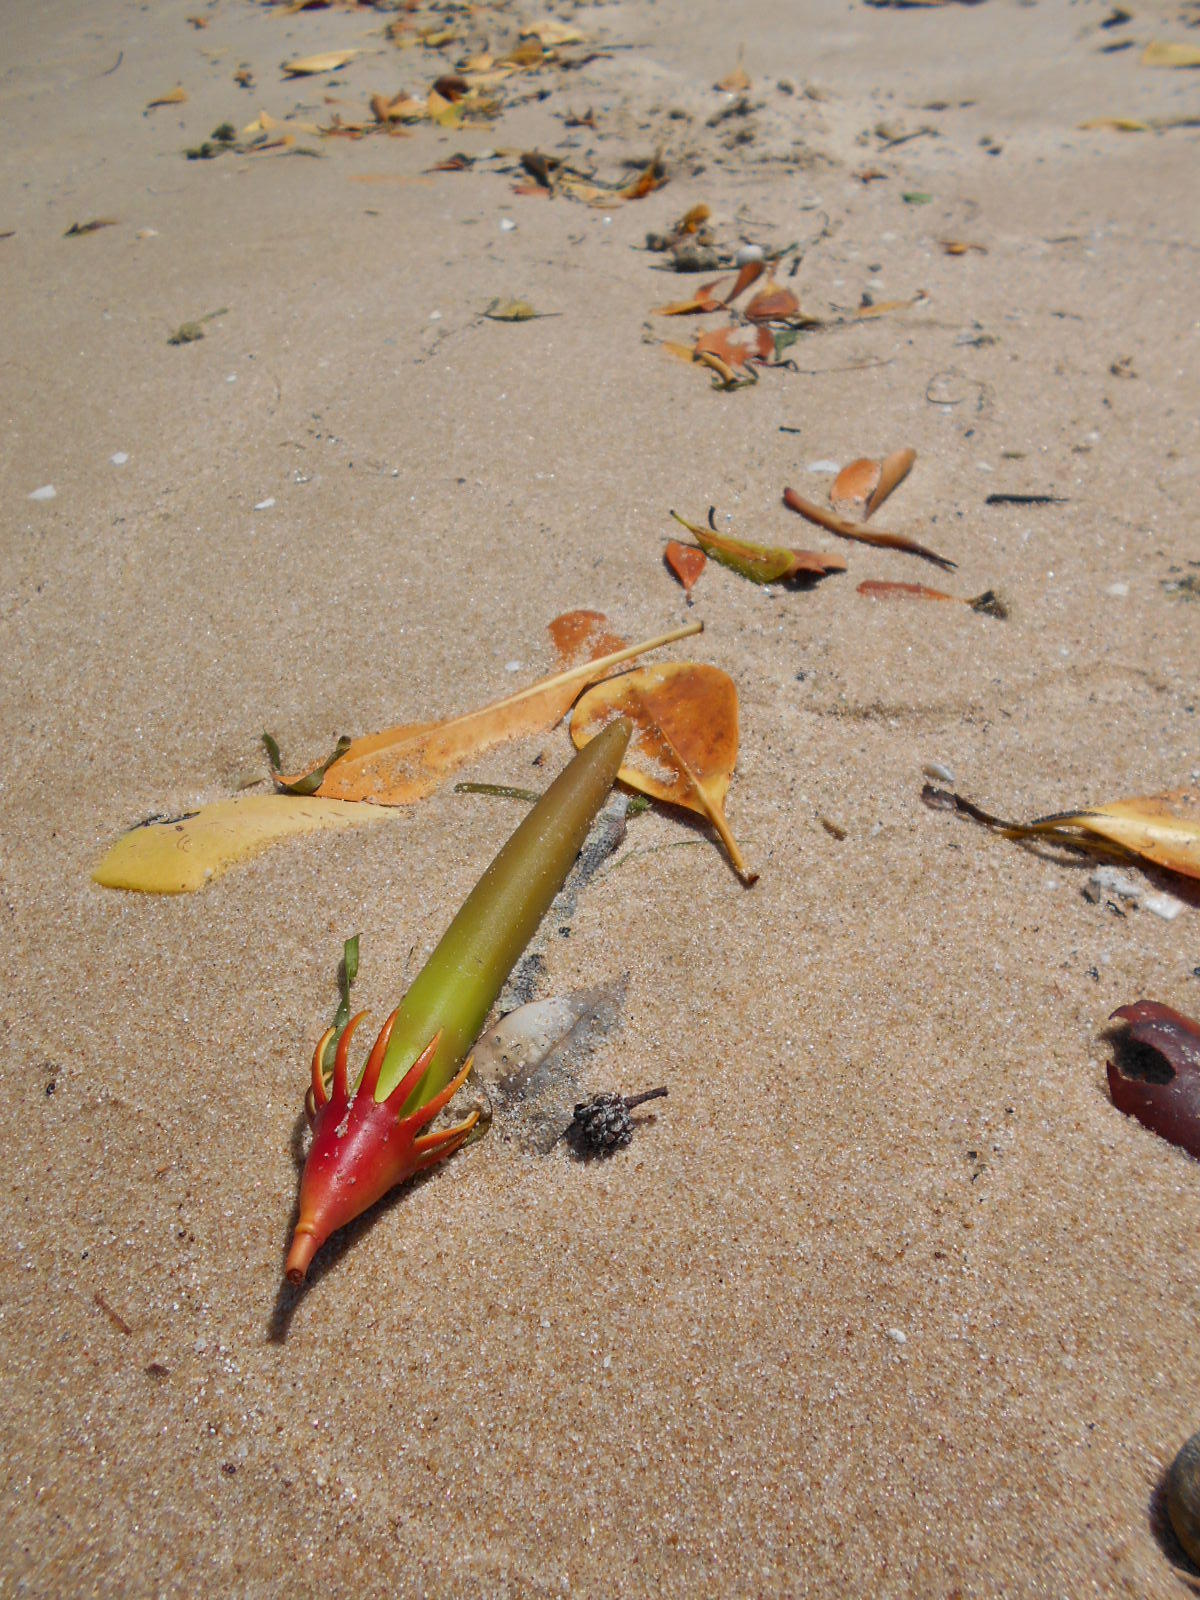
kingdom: Plantae
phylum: Tracheophyta
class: Magnoliopsida
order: Malpighiales
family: Rhizophoraceae
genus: Bruguiera
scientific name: Bruguiera gymnorhiza
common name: Oriental mangrove
